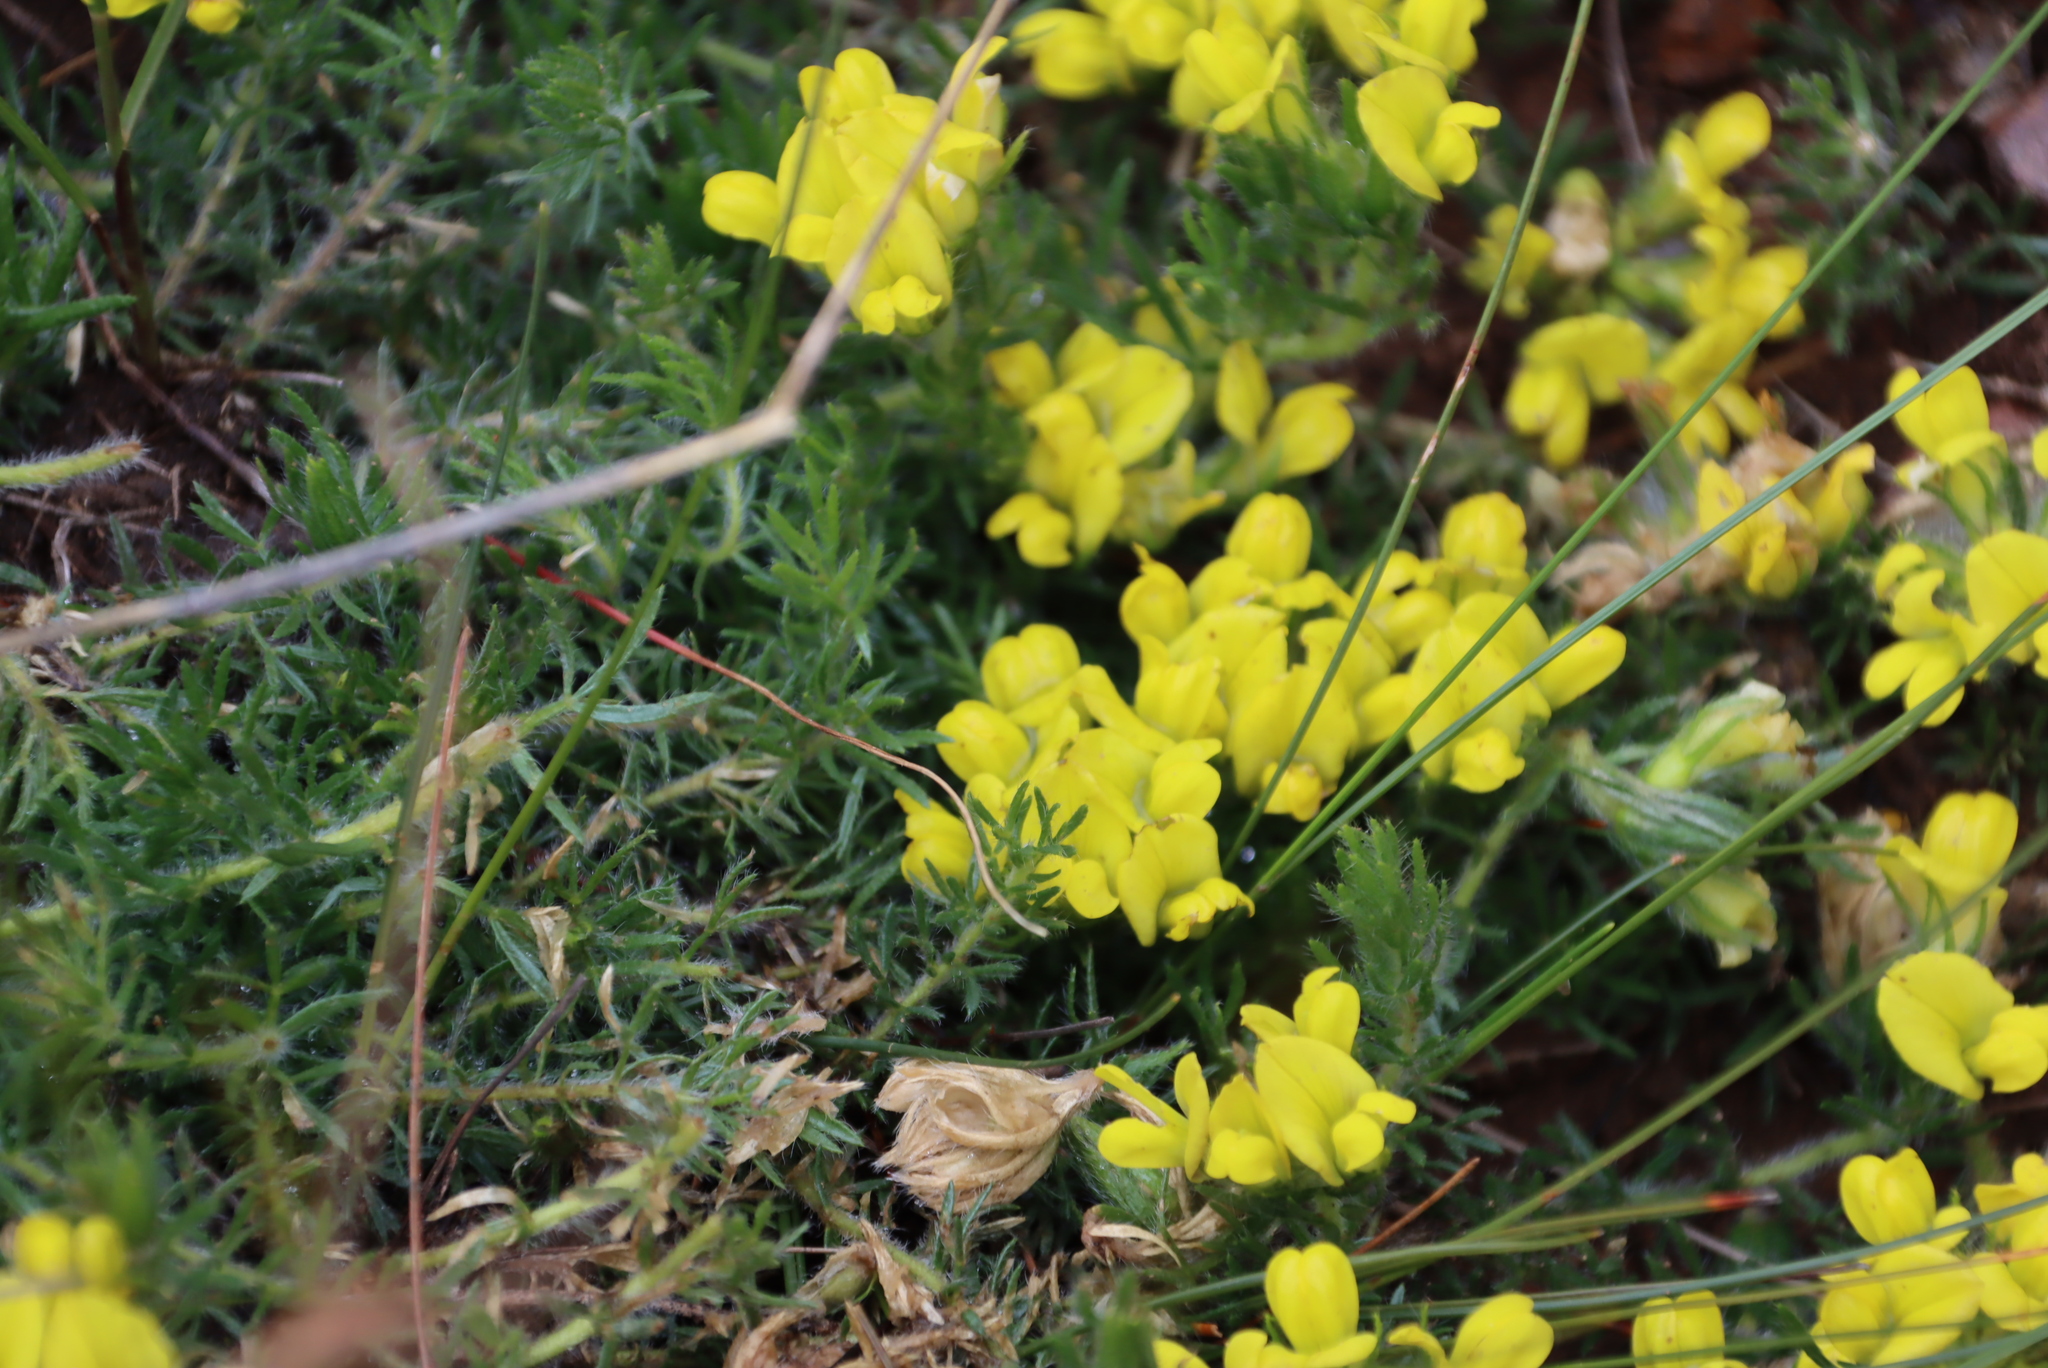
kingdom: Plantae
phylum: Tracheophyta
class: Magnoliopsida
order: Fabales
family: Fabaceae
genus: Lotononis
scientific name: Lotononis involucrata
